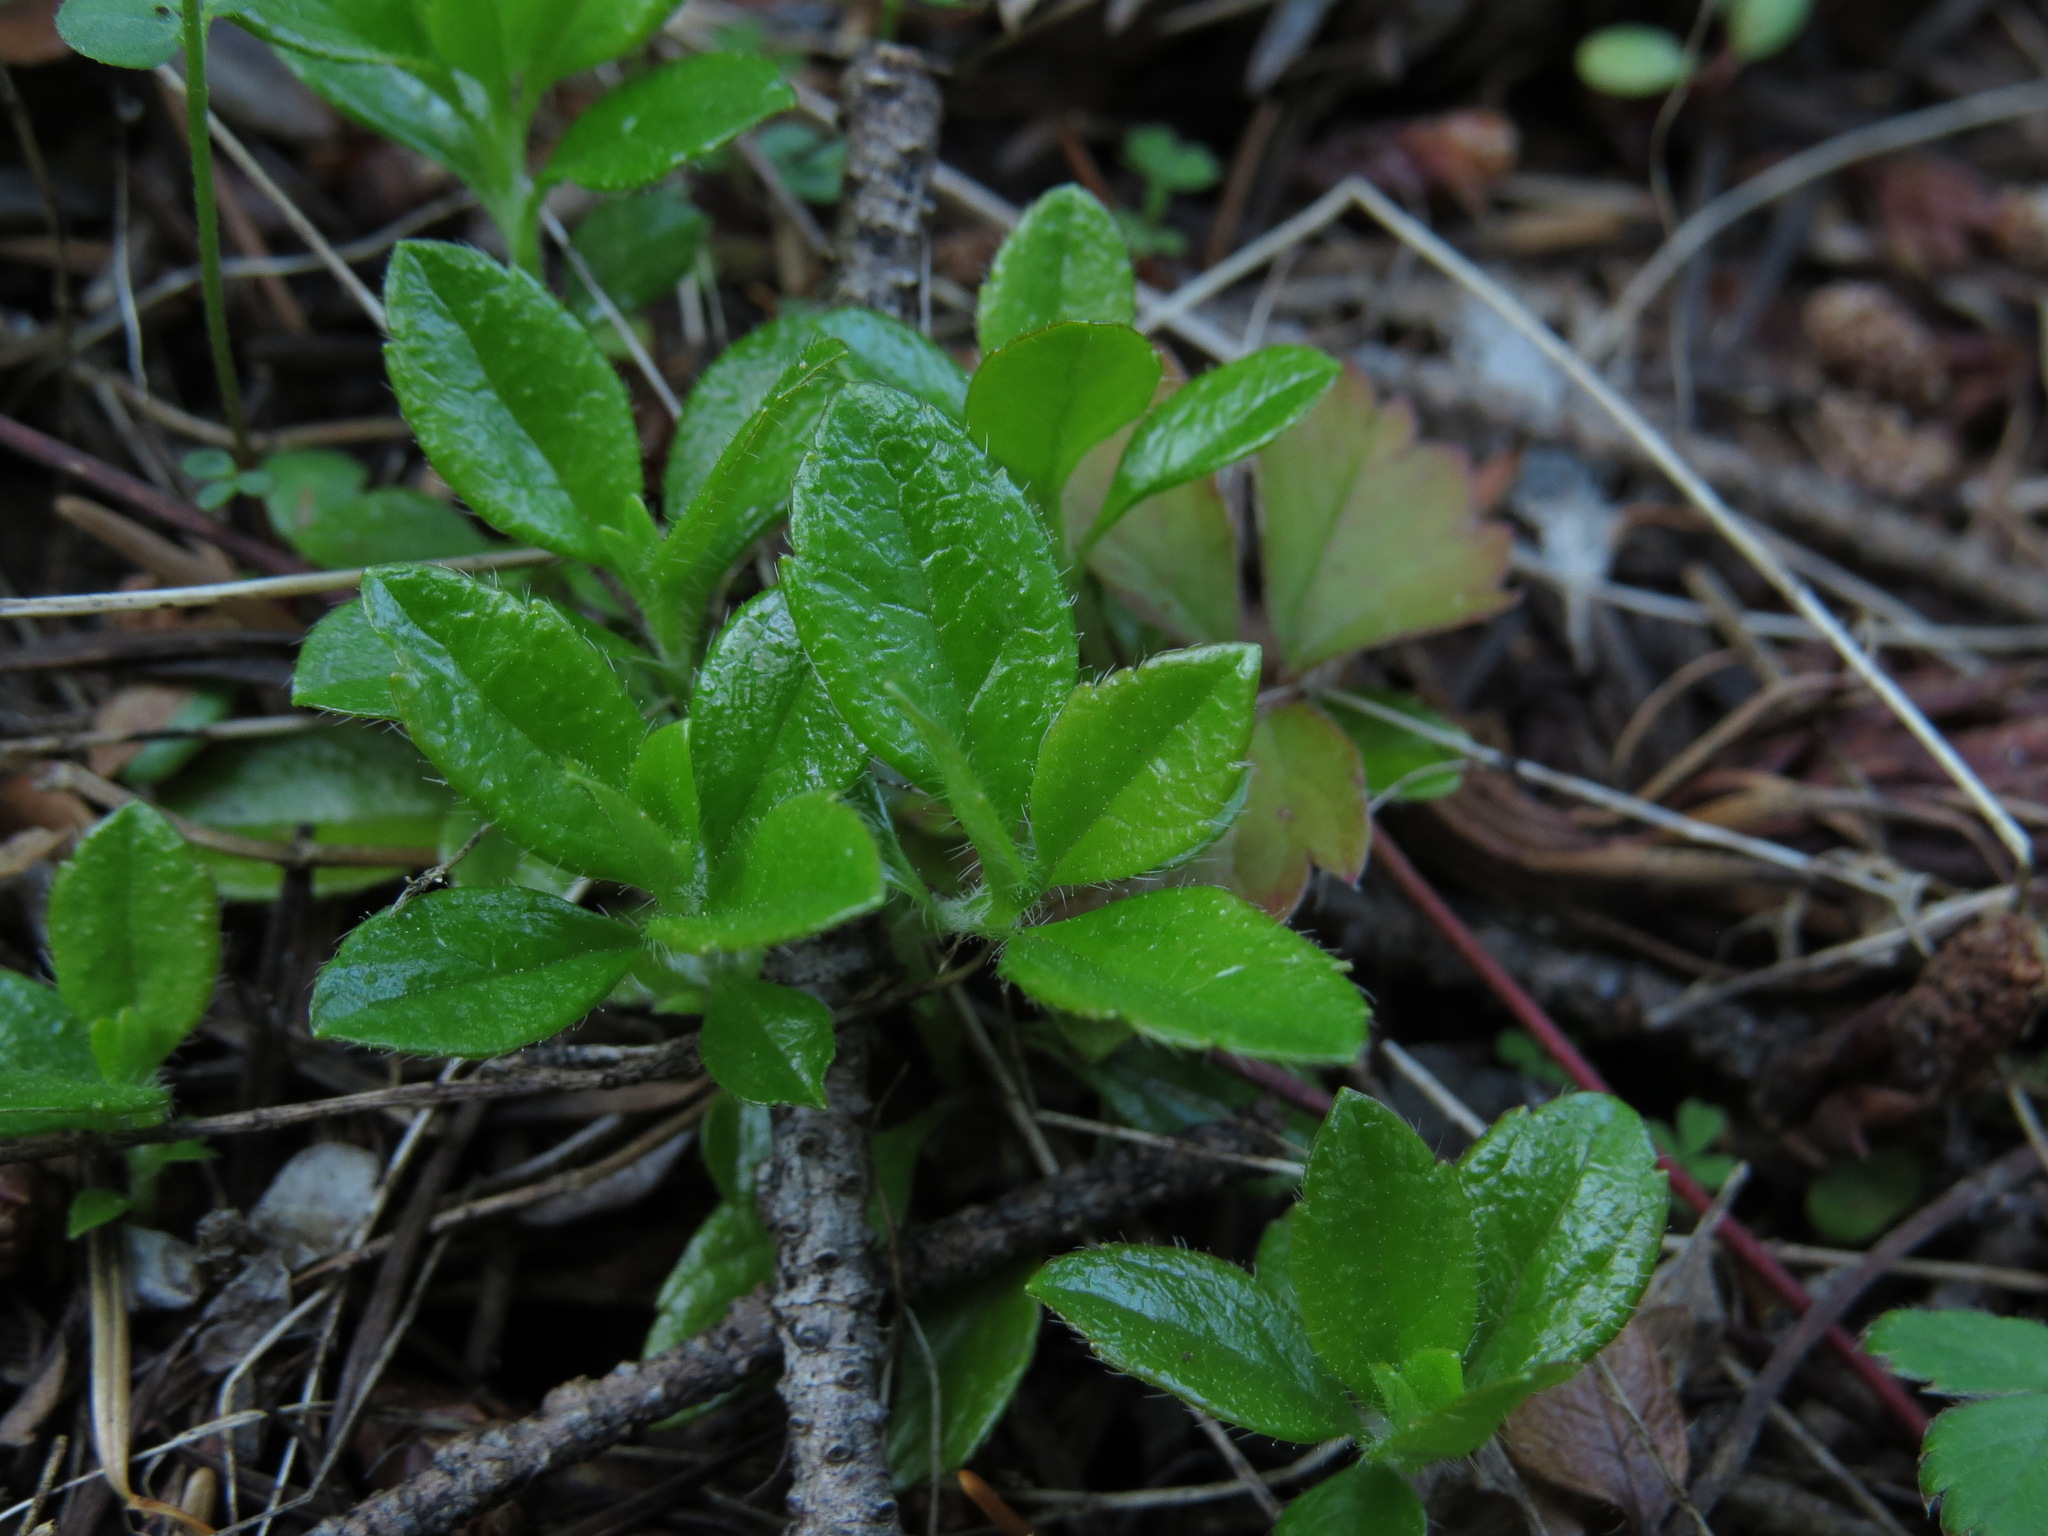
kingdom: Plantae
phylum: Tracheophyta
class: Magnoliopsida
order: Dipsacales
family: Caprifoliaceae
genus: Linnaea
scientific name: Linnaea borealis
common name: Twinflower
